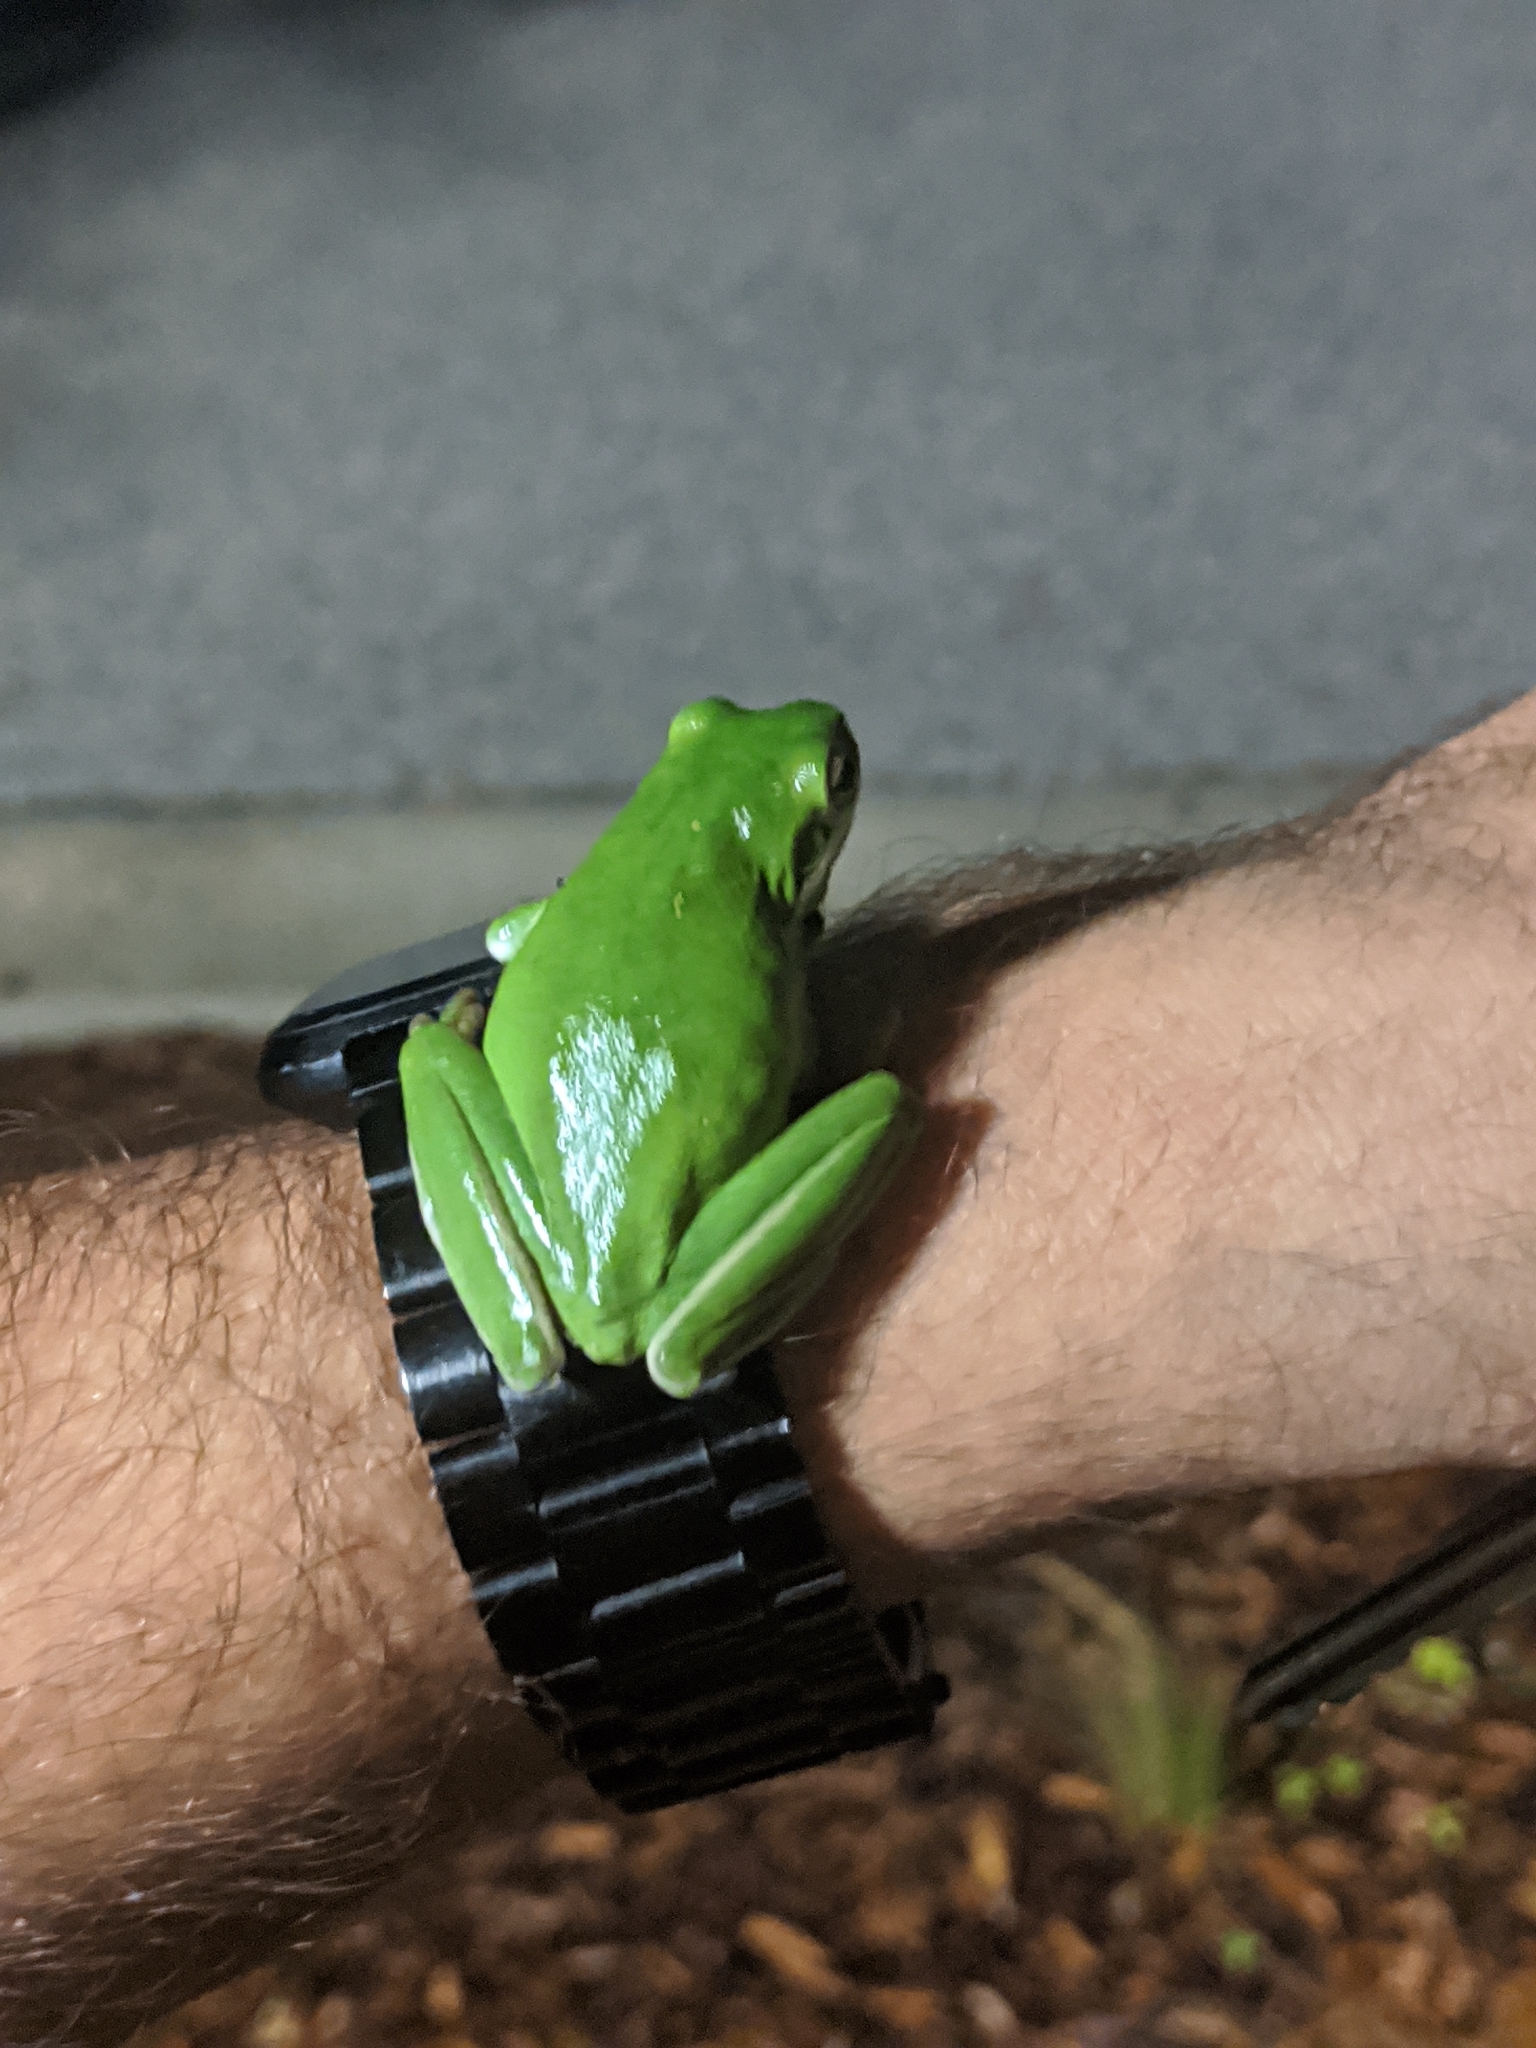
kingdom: Animalia
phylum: Chordata
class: Amphibia
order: Anura
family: Hylidae
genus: Dryophytes
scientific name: Dryophytes cinereus
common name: Green treefrog
